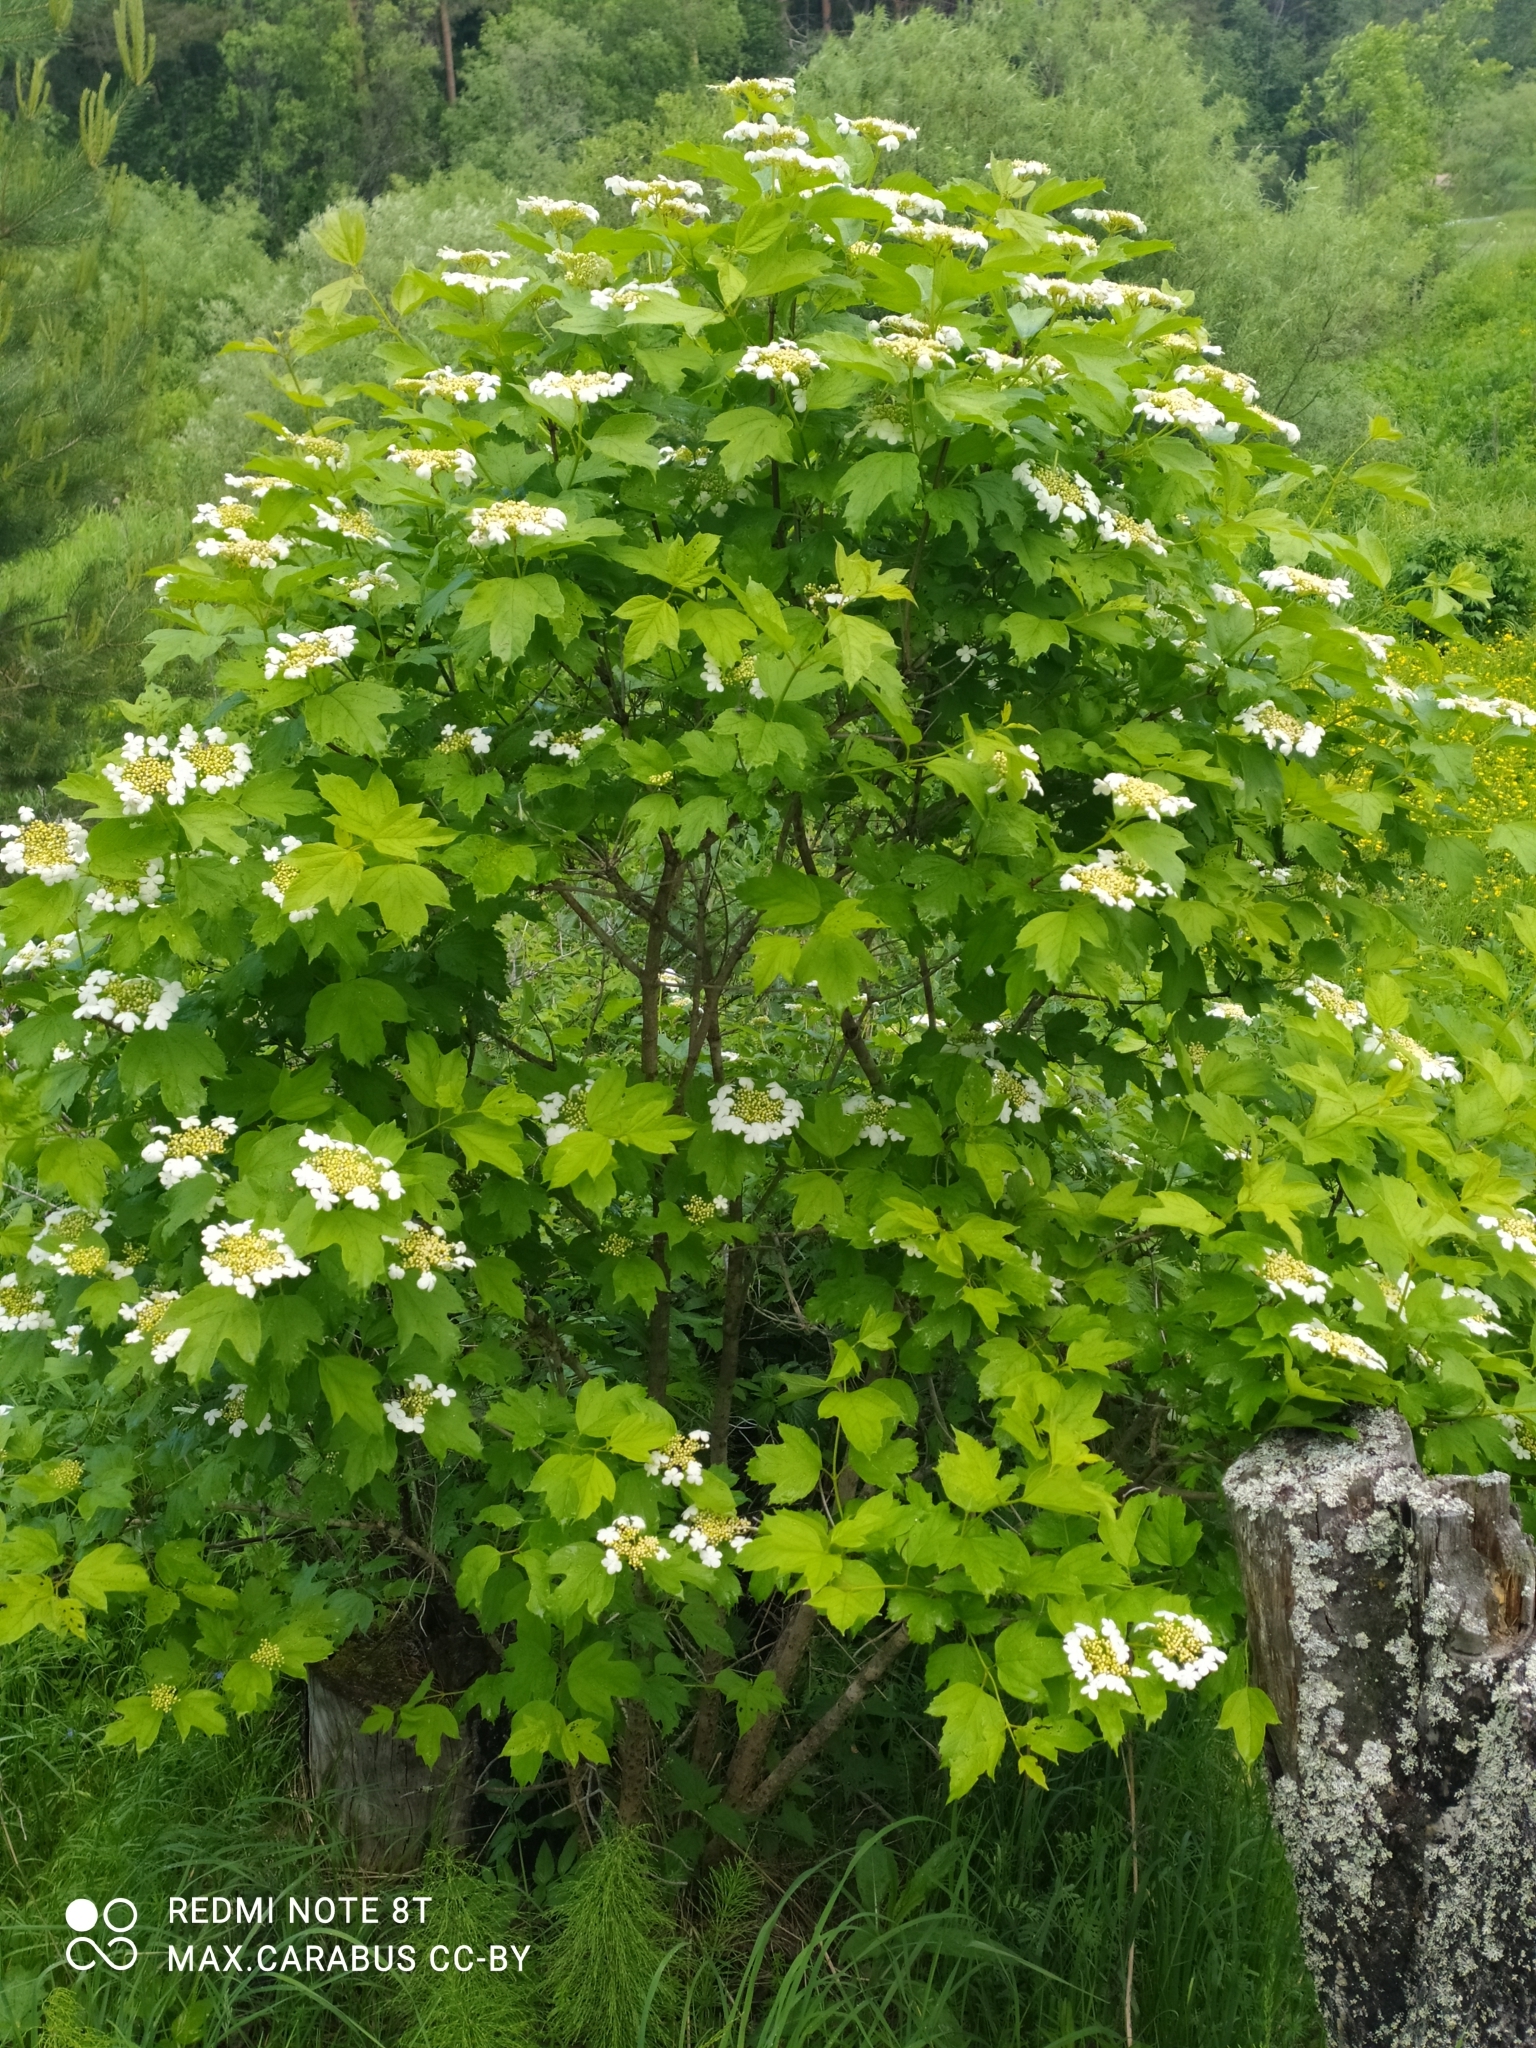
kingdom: Plantae
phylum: Tracheophyta
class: Magnoliopsida
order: Dipsacales
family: Viburnaceae
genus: Viburnum
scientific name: Viburnum opulus
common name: Guelder-rose
